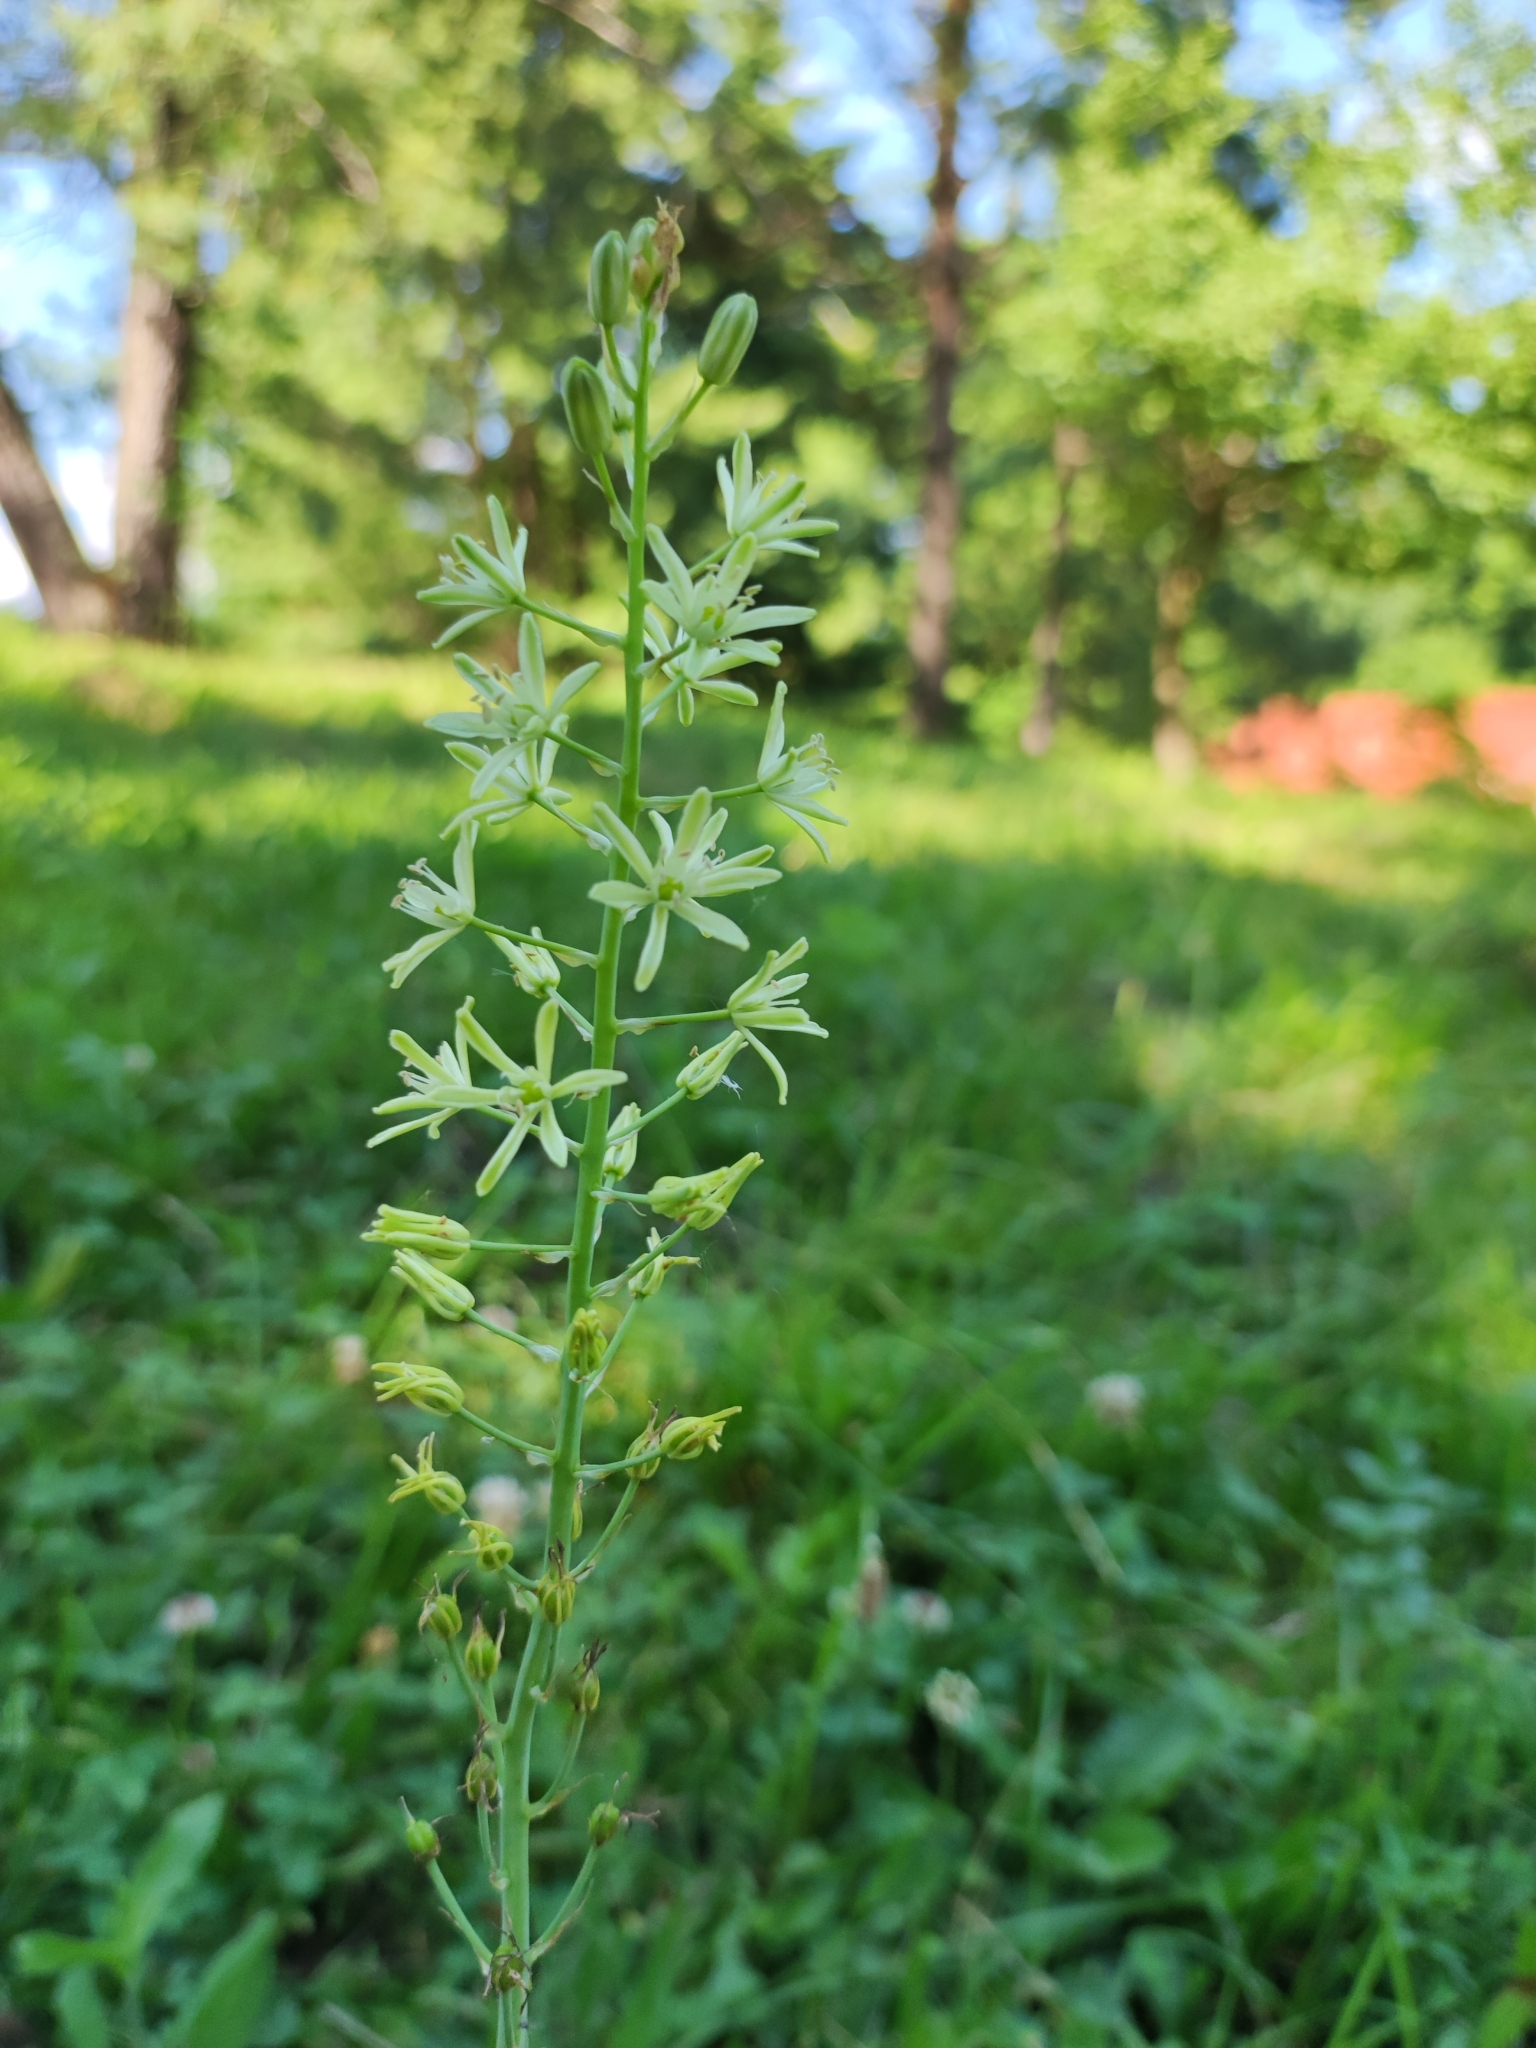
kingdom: Plantae
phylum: Tracheophyta
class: Liliopsida
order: Asparagales
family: Asparagaceae
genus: Ornithogalum
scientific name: Ornithogalum pyrenaicum
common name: Spiked star-of-bethlehem
